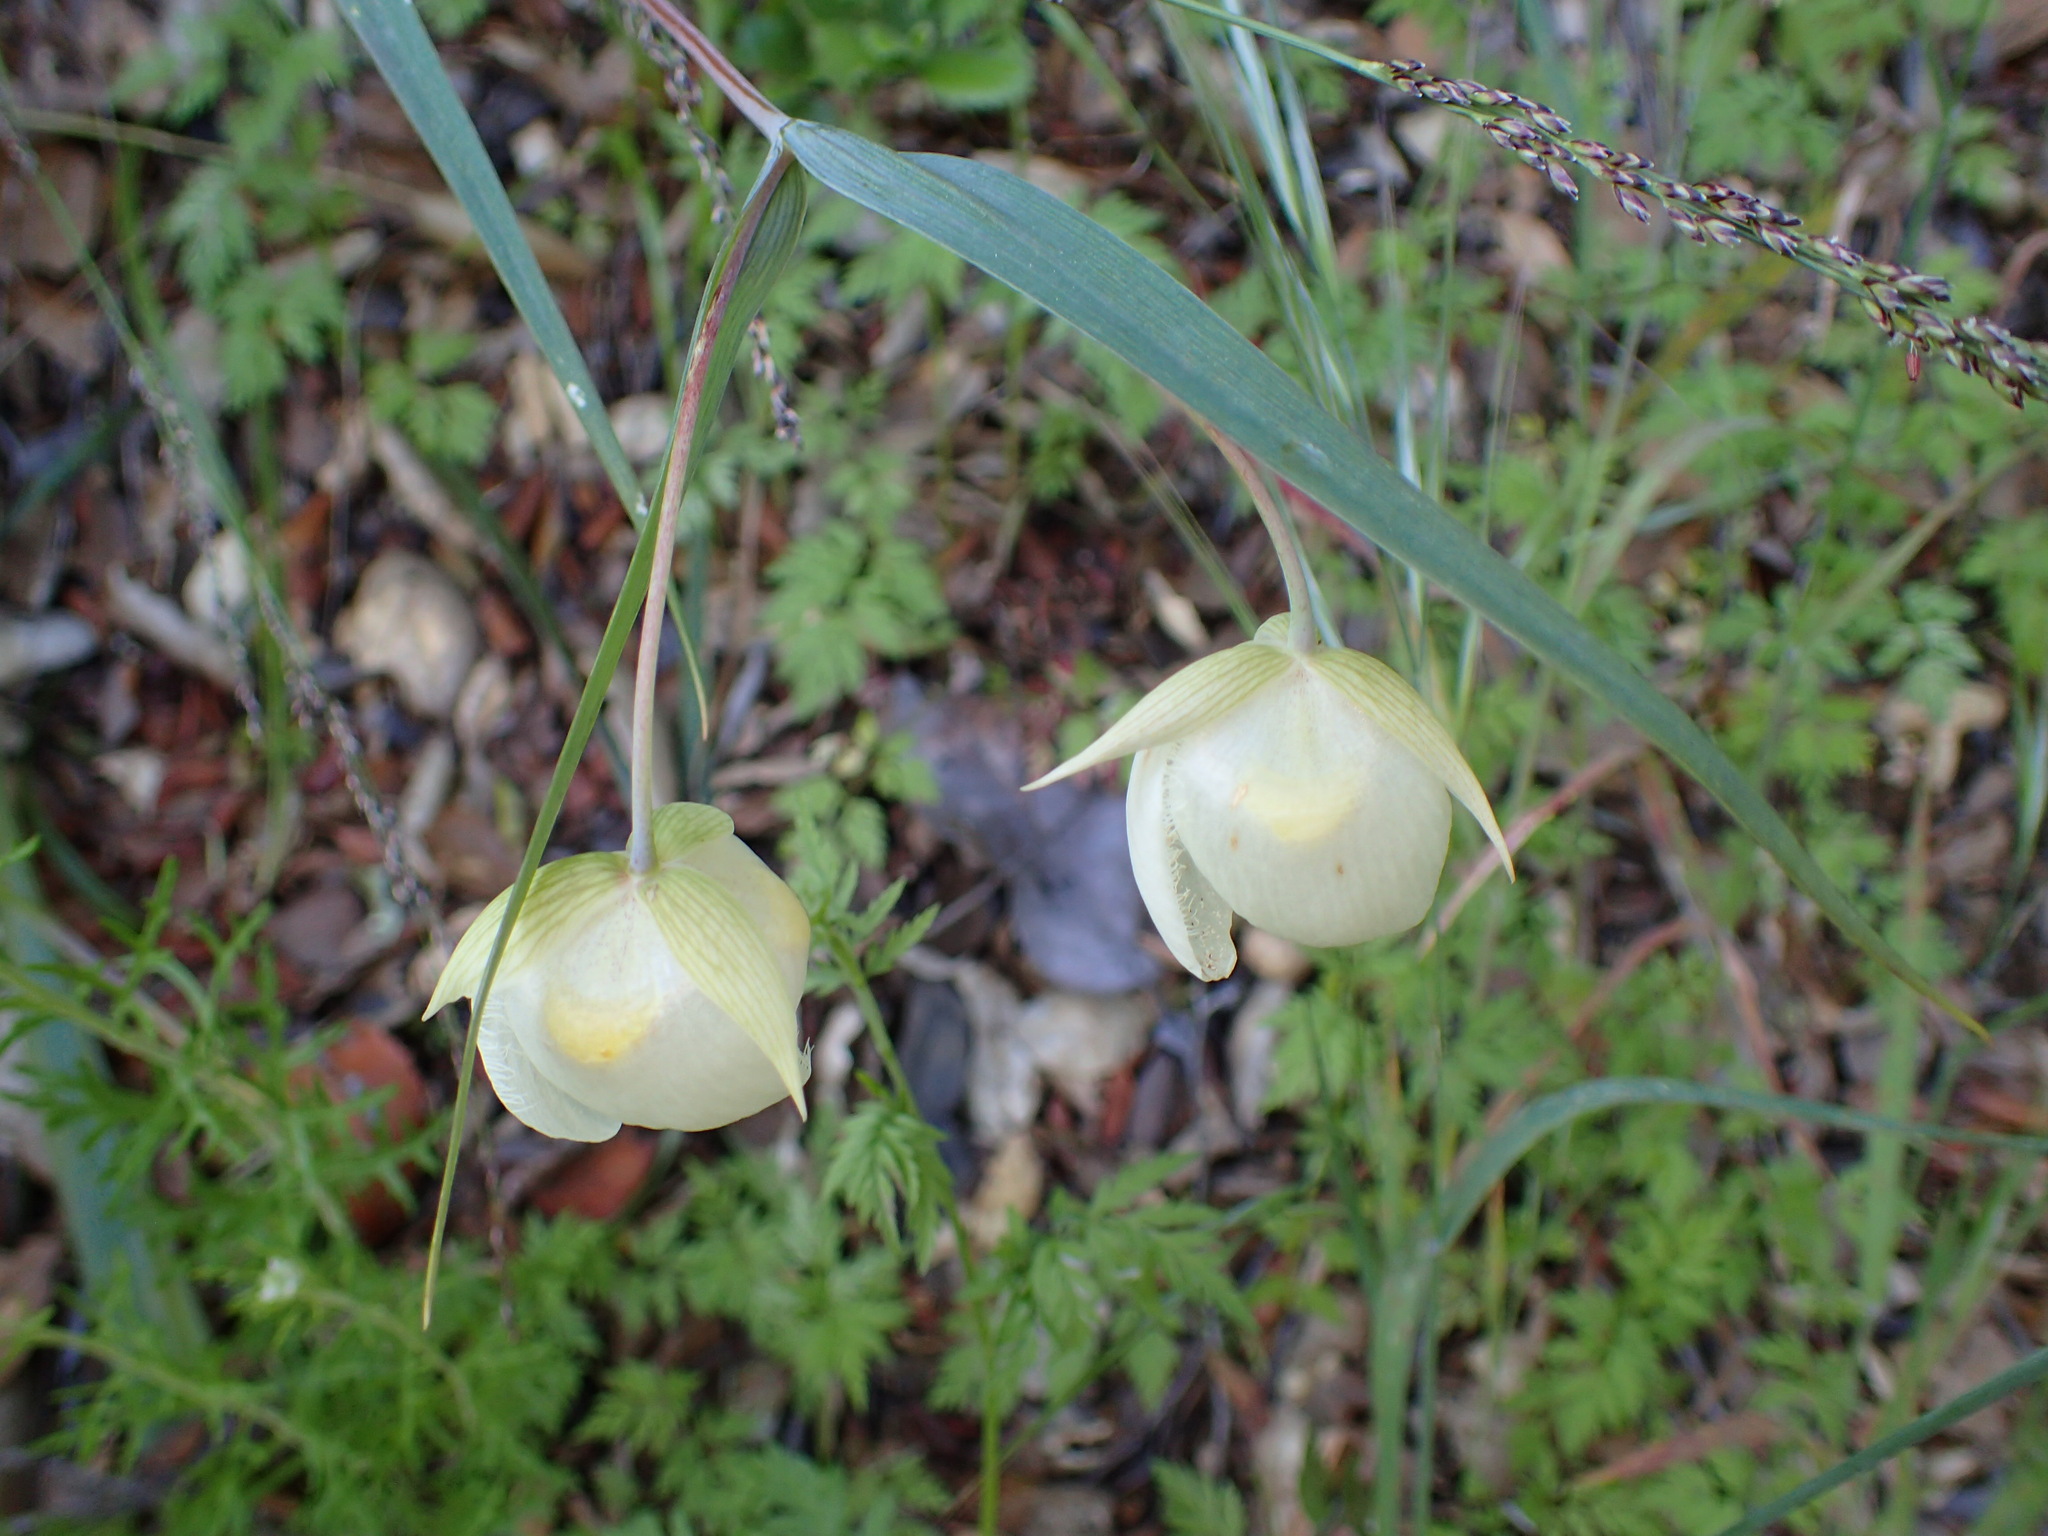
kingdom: Plantae
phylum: Tracheophyta
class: Liliopsida
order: Liliales
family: Liliaceae
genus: Calochortus
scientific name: Calochortus albus
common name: Fairy-lantern
